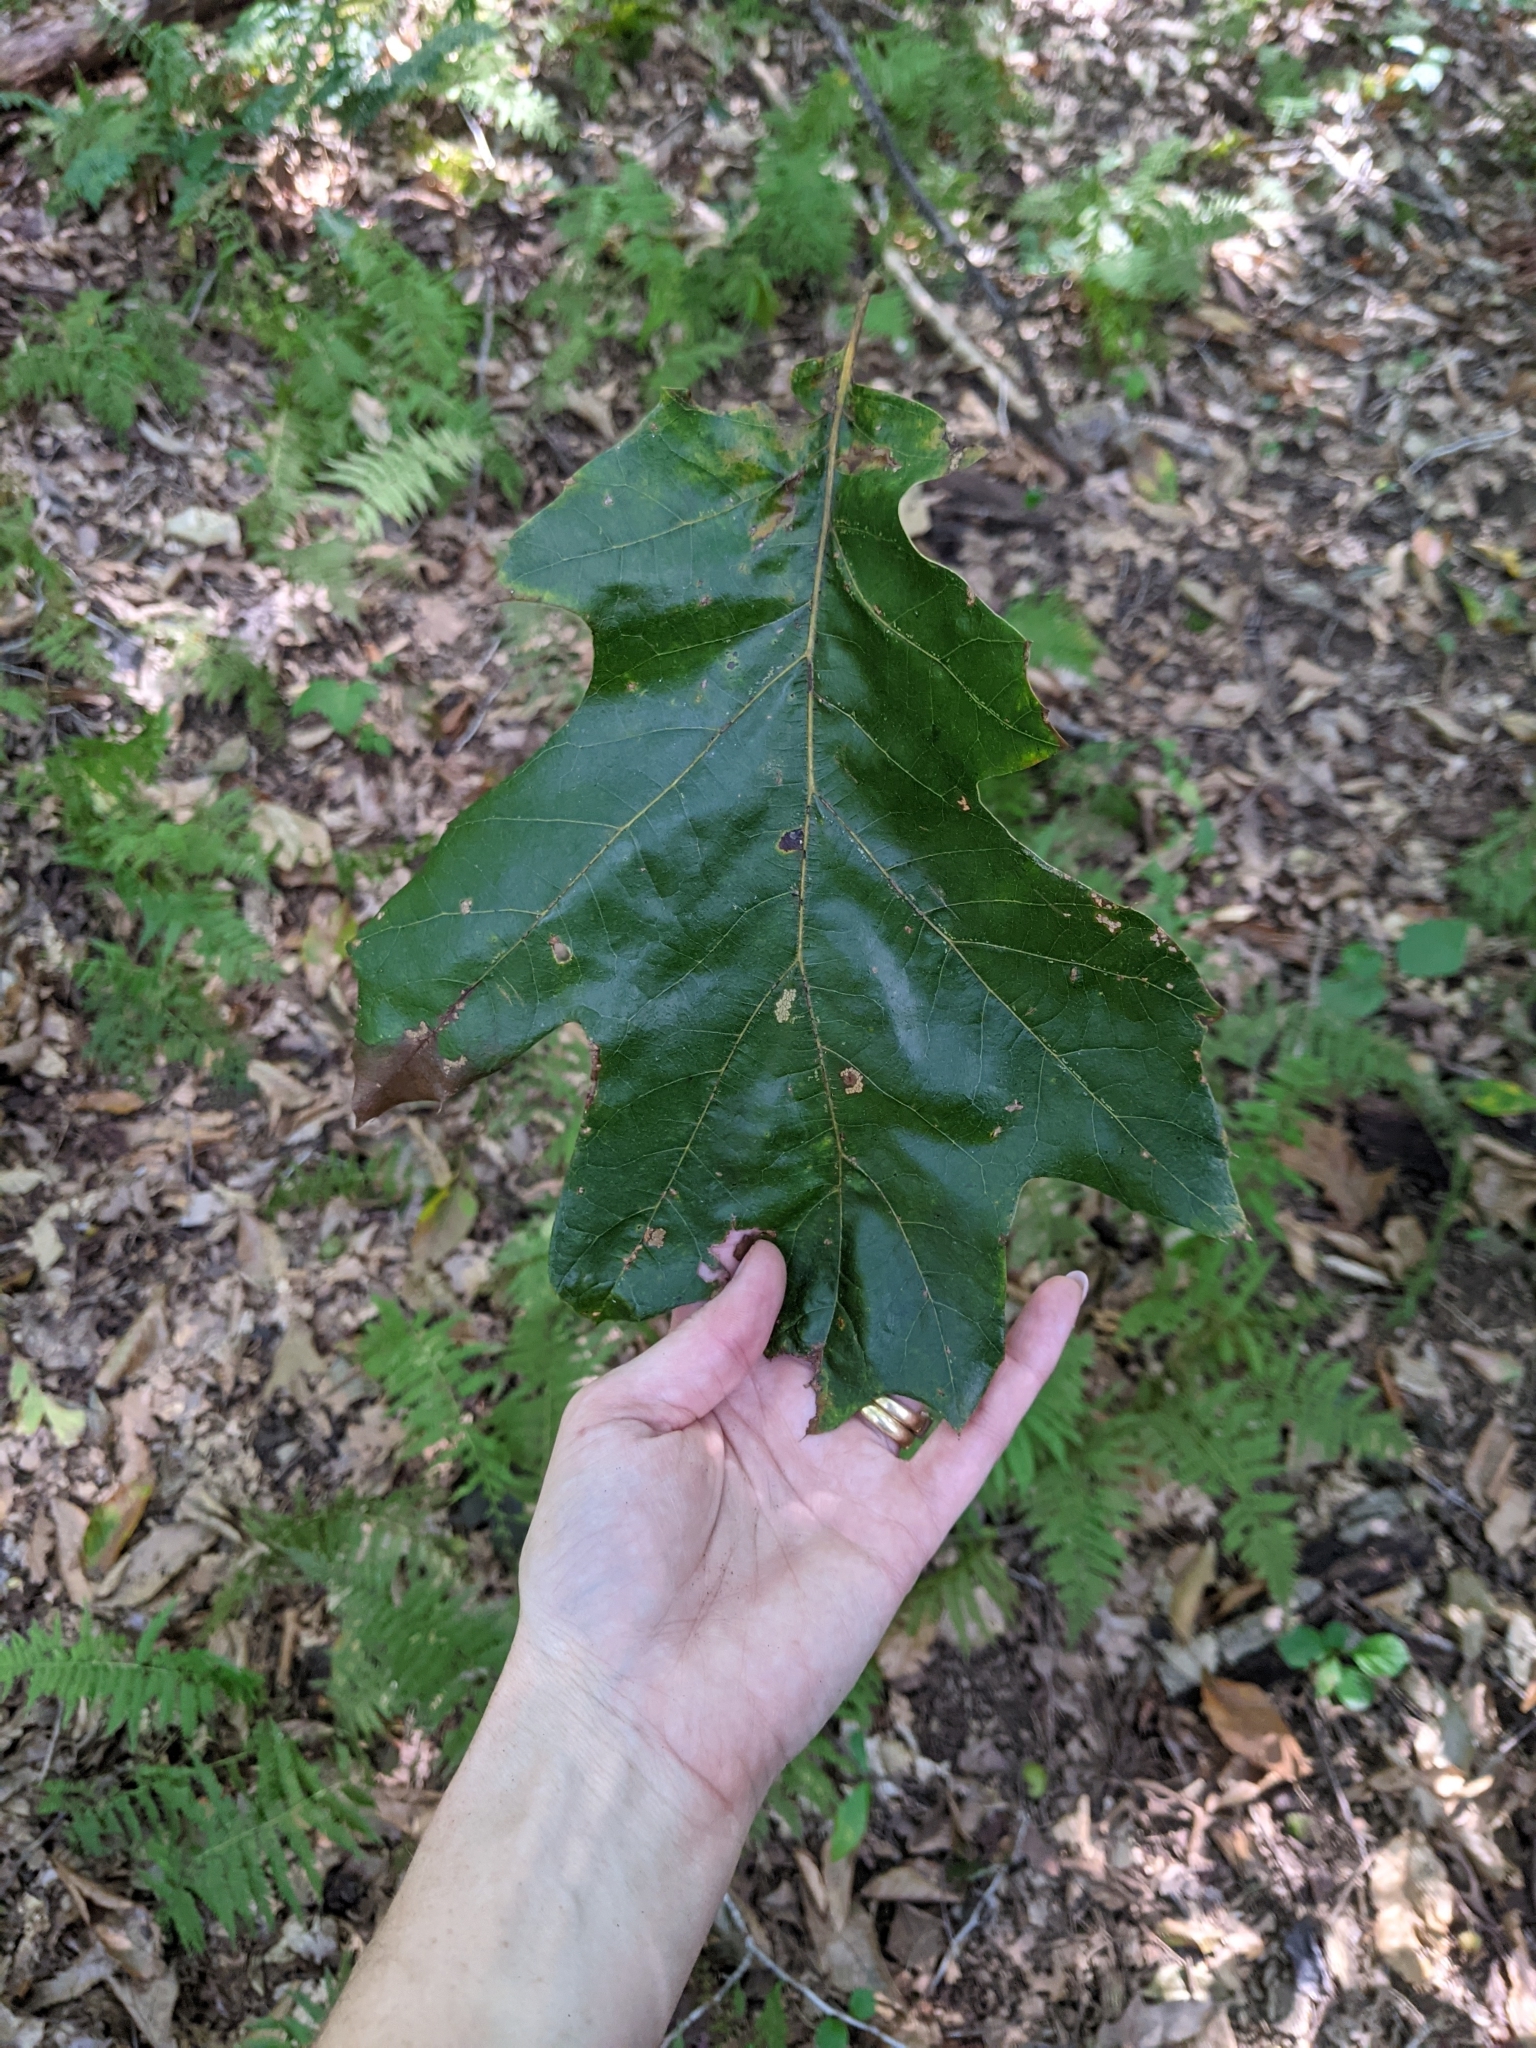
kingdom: Plantae
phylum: Tracheophyta
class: Magnoliopsida
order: Fagales
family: Fagaceae
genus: Quercus
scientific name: Quercus velutina
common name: Black oak
